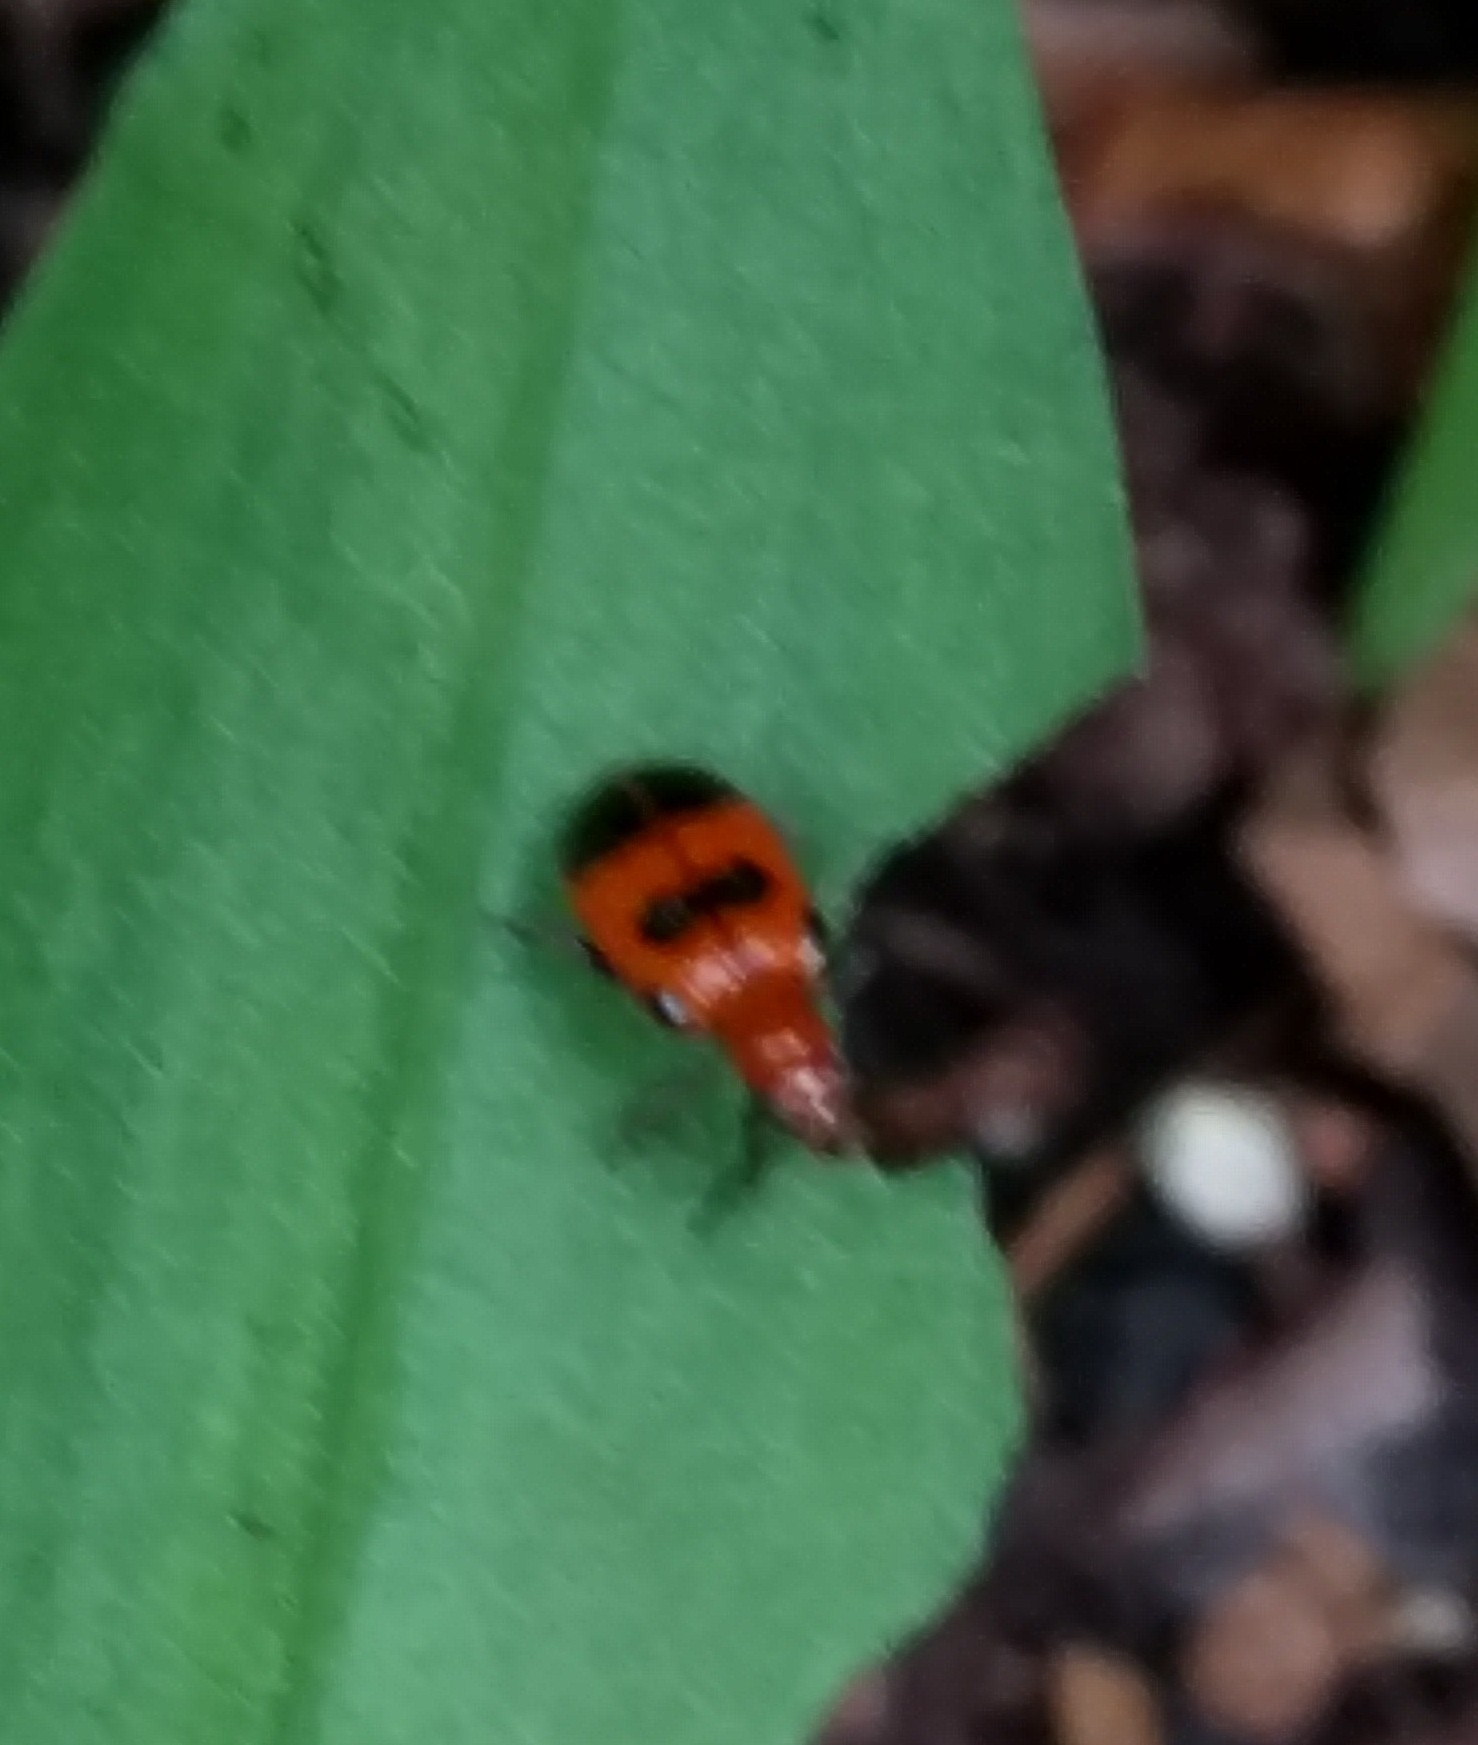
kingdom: Animalia
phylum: Arthropoda
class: Insecta
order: Coleoptera
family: Chrysomelidae
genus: Neolema
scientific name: Neolema sexpunctata
